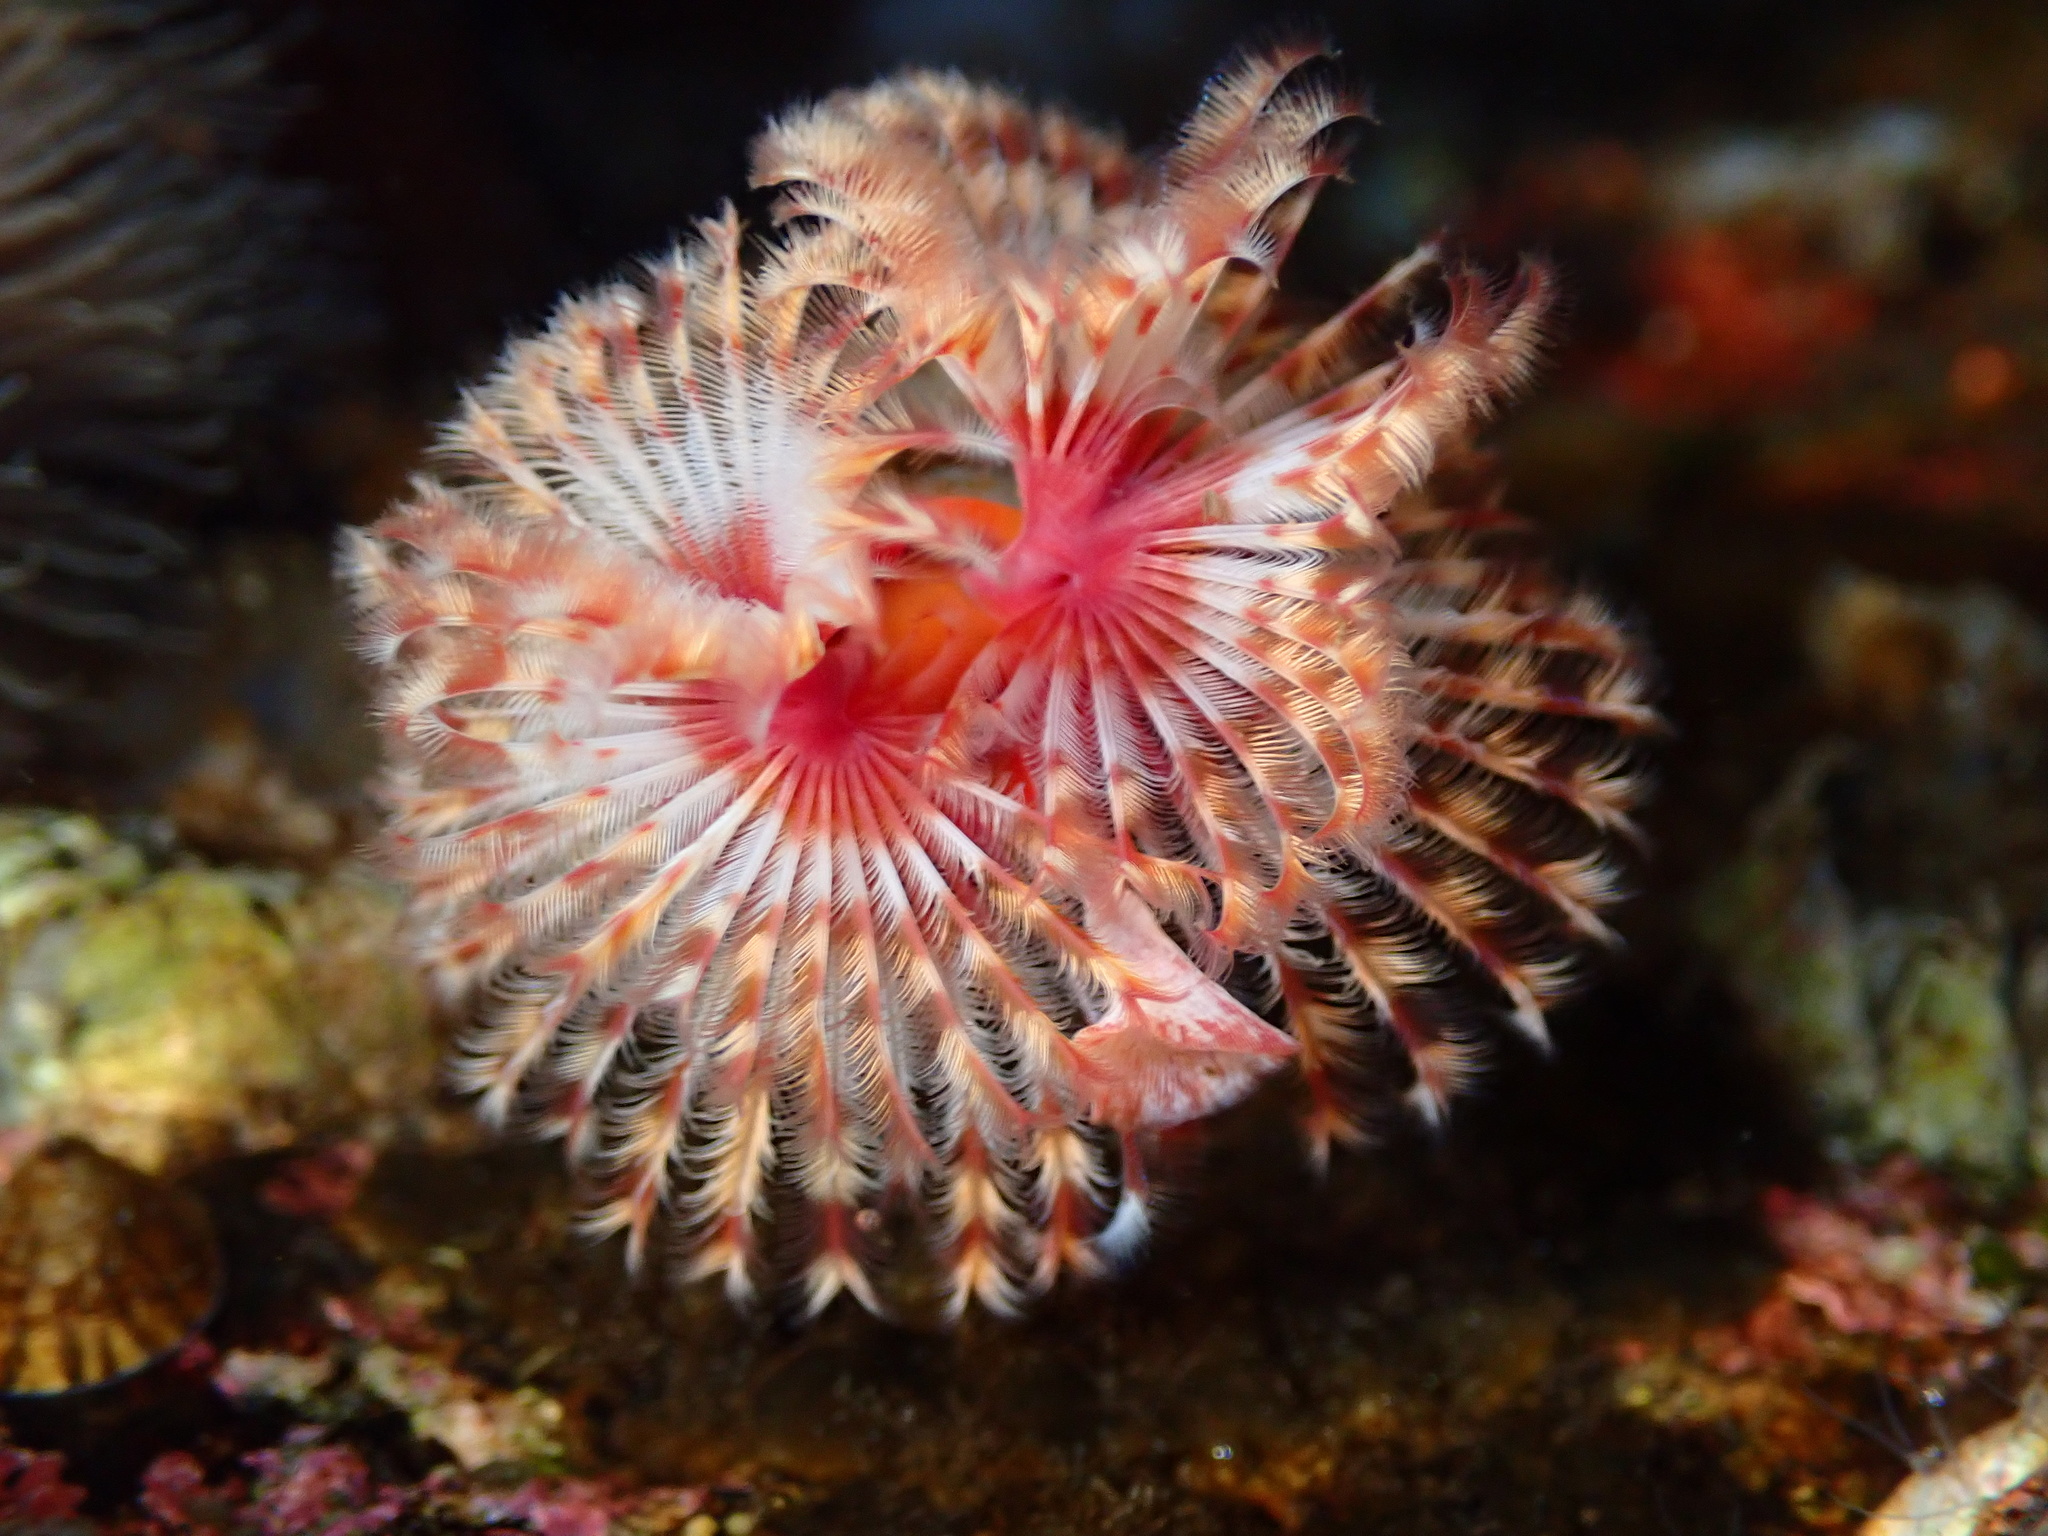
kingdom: Animalia
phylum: Annelida
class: Polychaeta
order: Sabellida
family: Serpulidae
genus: Serpula
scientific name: Serpula columbiana
